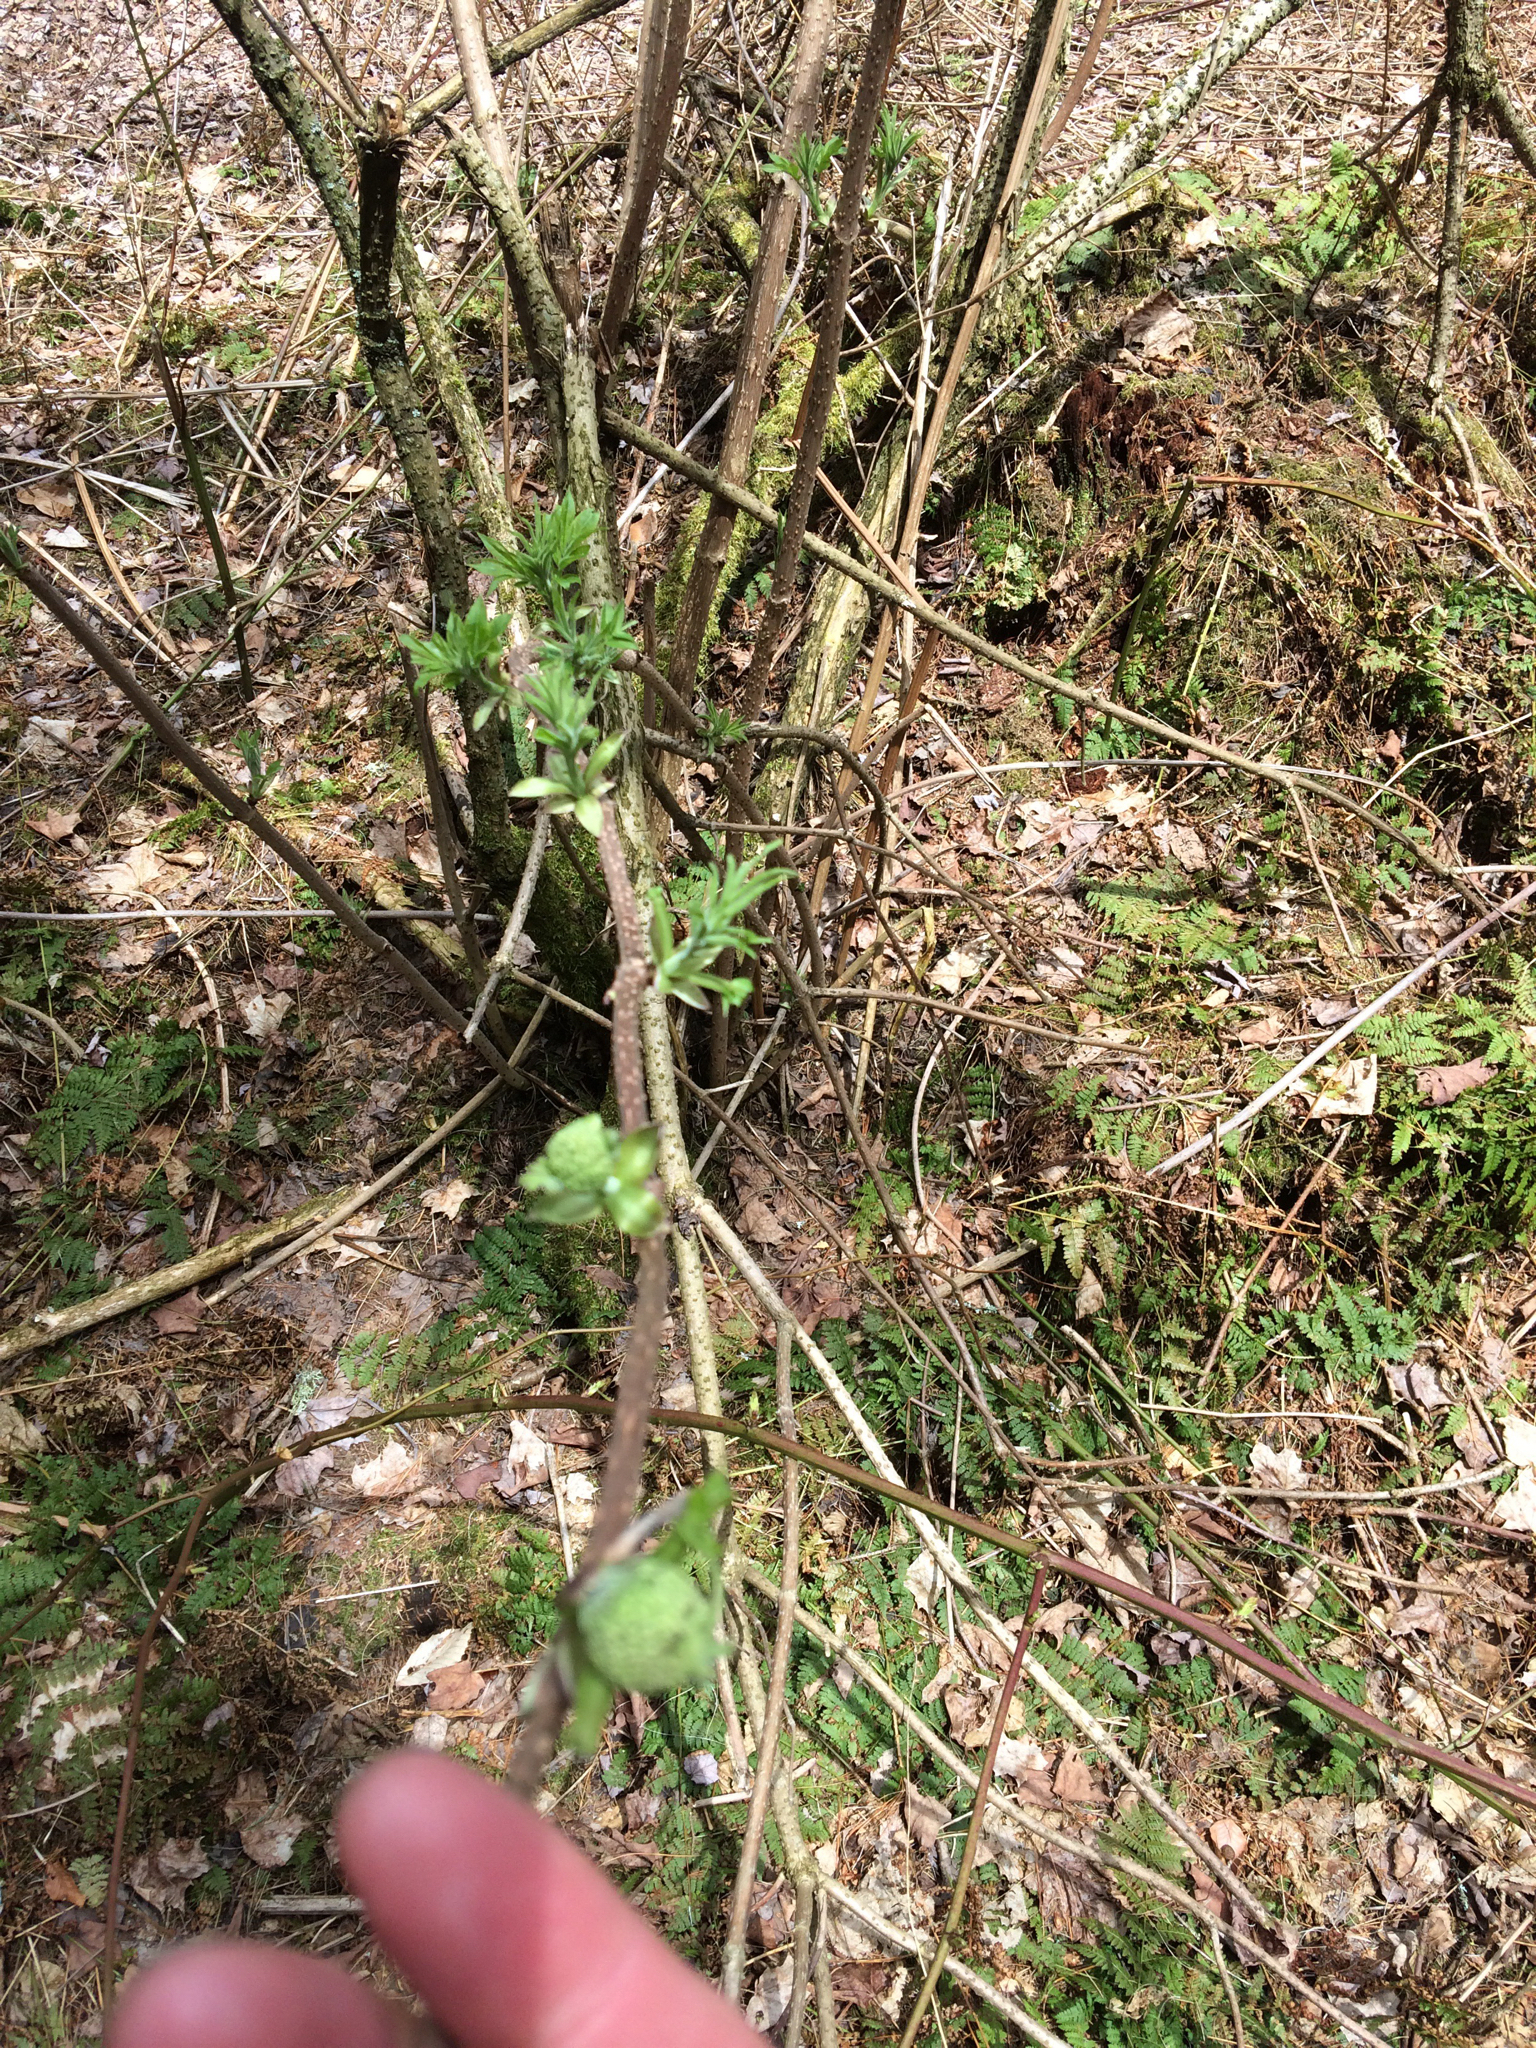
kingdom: Plantae
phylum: Tracheophyta
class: Magnoliopsida
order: Dipsacales
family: Viburnaceae
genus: Sambucus
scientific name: Sambucus racemosa
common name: Red-berried elder
